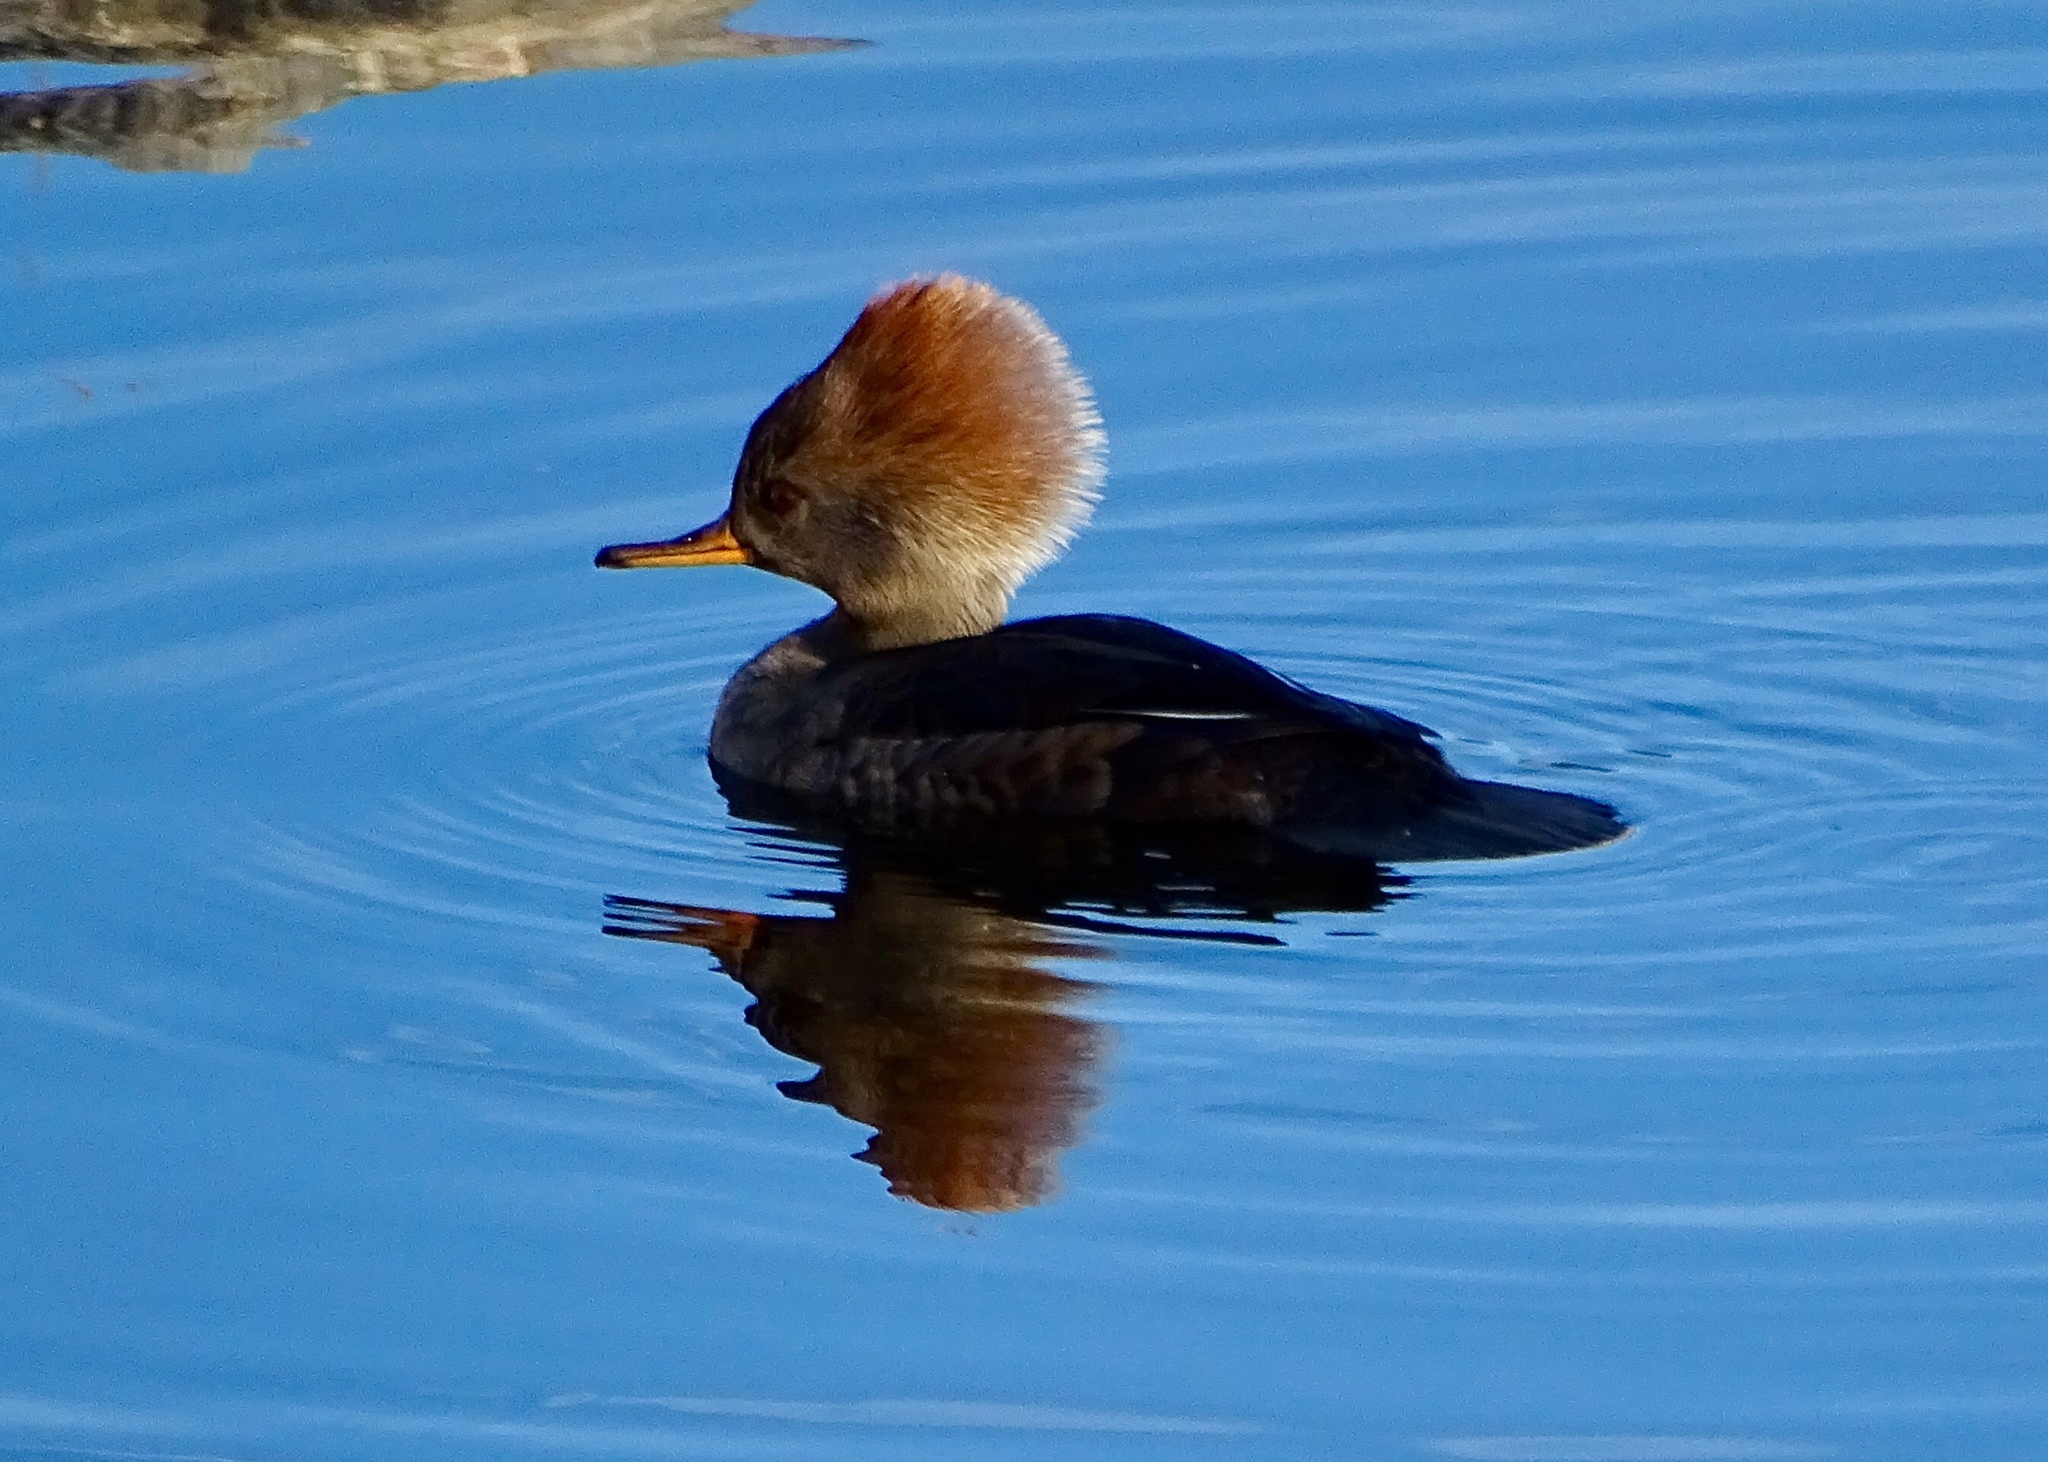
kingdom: Animalia
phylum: Chordata
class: Aves
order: Anseriformes
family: Anatidae
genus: Lophodytes
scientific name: Lophodytes cucullatus
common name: Hooded merganser
